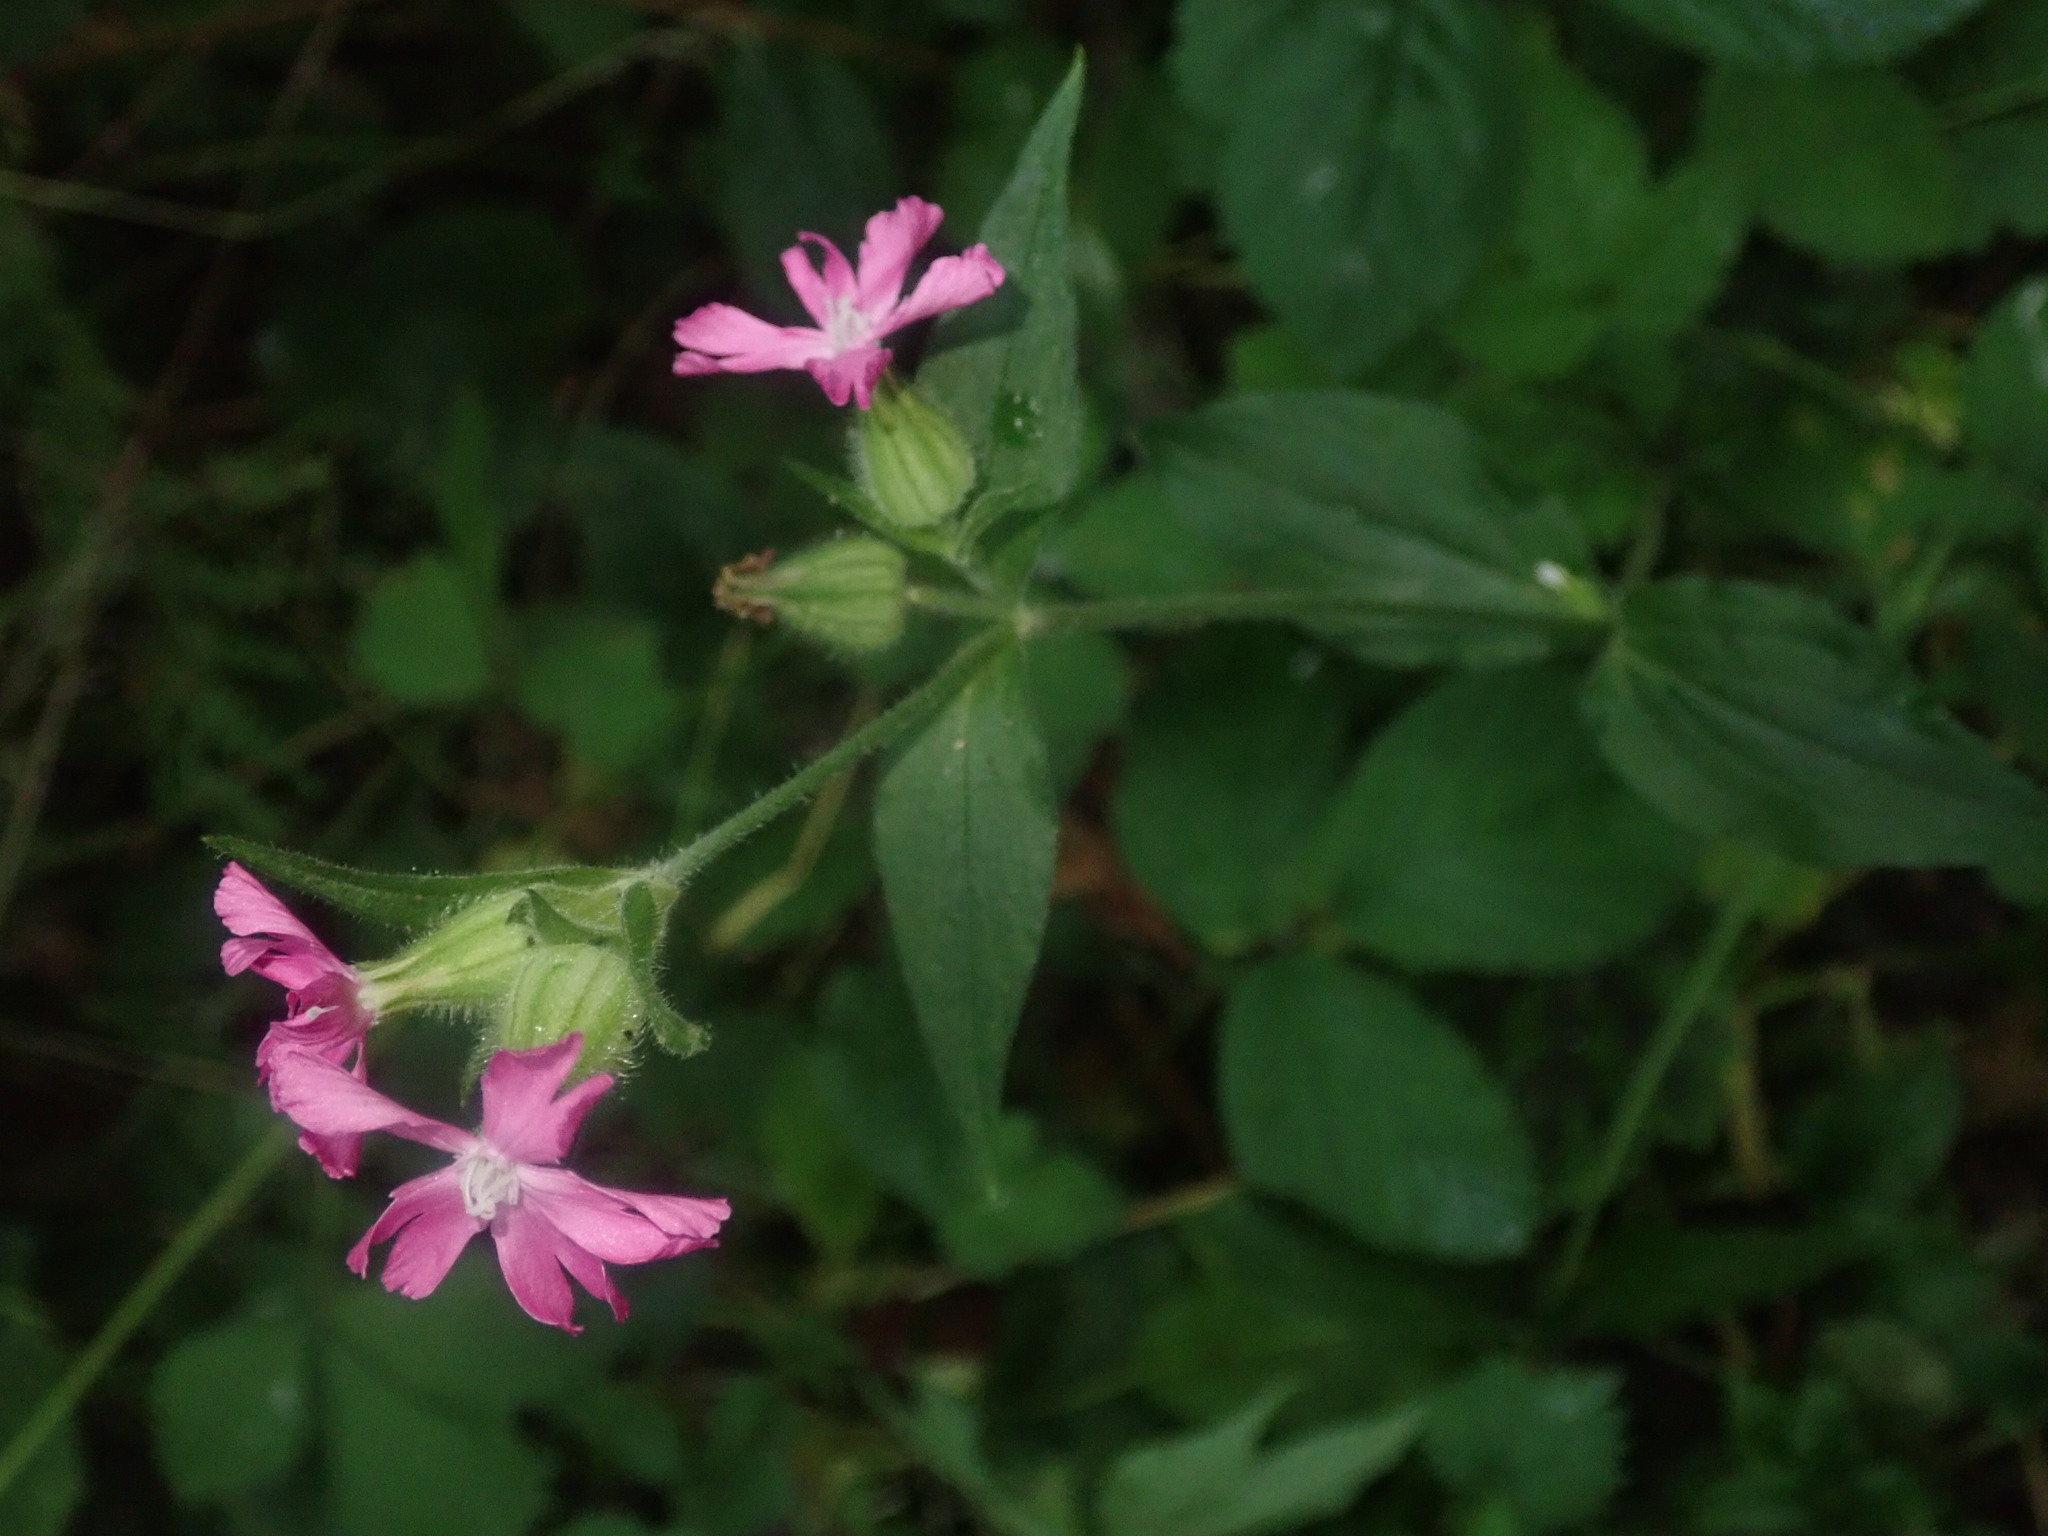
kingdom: Plantae
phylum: Tracheophyta
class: Magnoliopsida
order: Caryophyllales
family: Caryophyllaceae
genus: Silene
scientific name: Silene dioica
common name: Red campion
